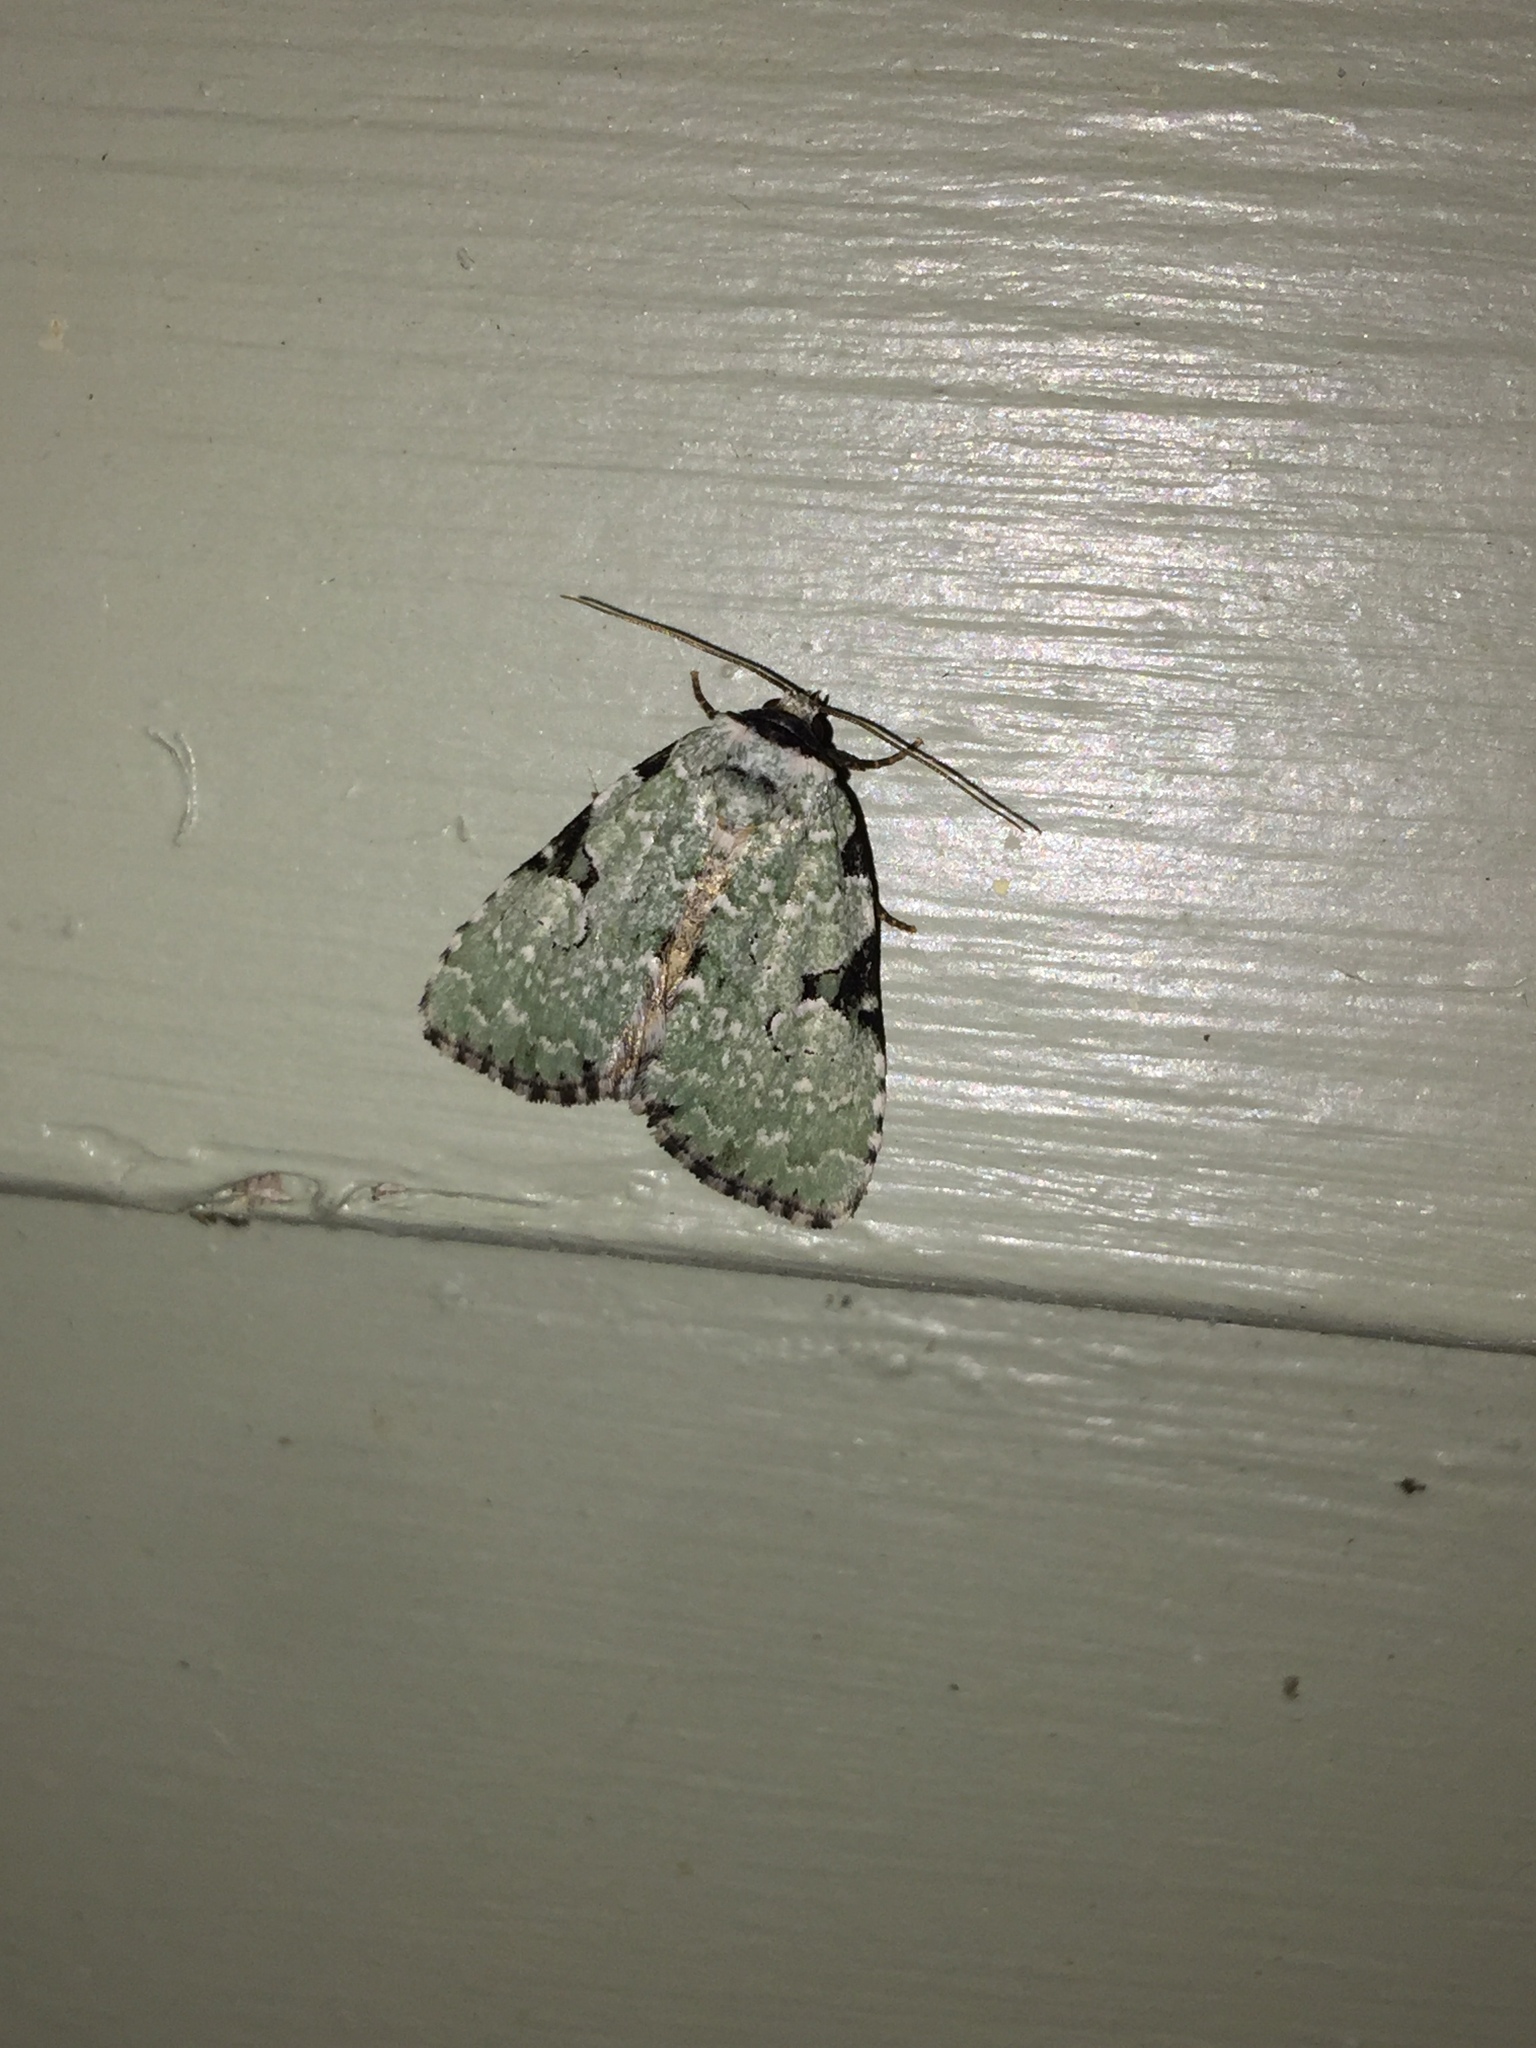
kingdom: Animalia
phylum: Arthropoda
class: Insecta
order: Lepidoptera
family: Noctuidae
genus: Leuconycta
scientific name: Leuconycta diphteroides
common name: Green leuconycta moth
